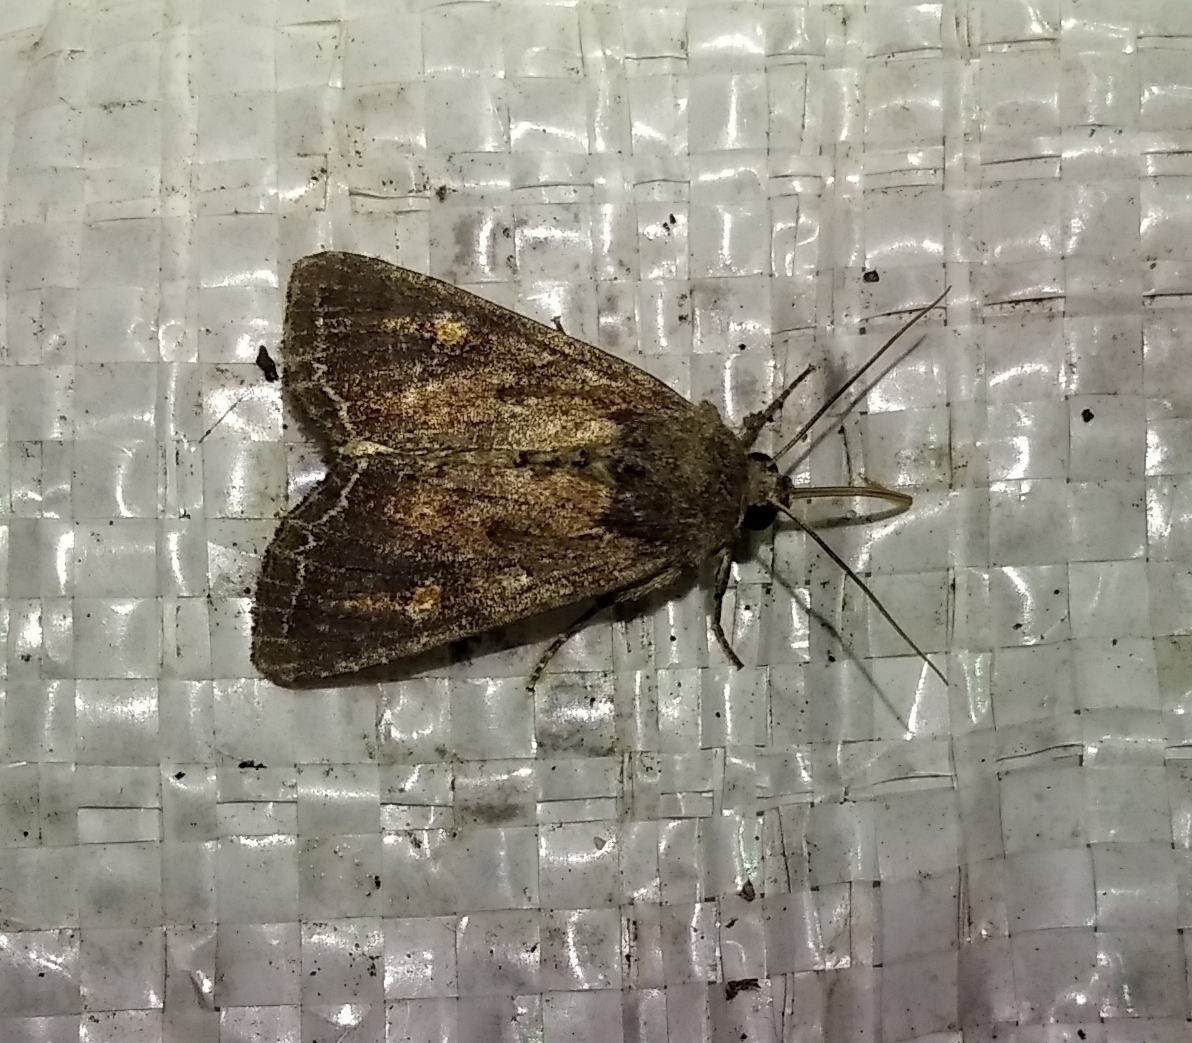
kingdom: Animalia
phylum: Arthropoda
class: Insecta
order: Lepidoptera
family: Noctuidae
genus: Lacanobia
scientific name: Lacanobia oleracea
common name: Bright-line brown-eye
